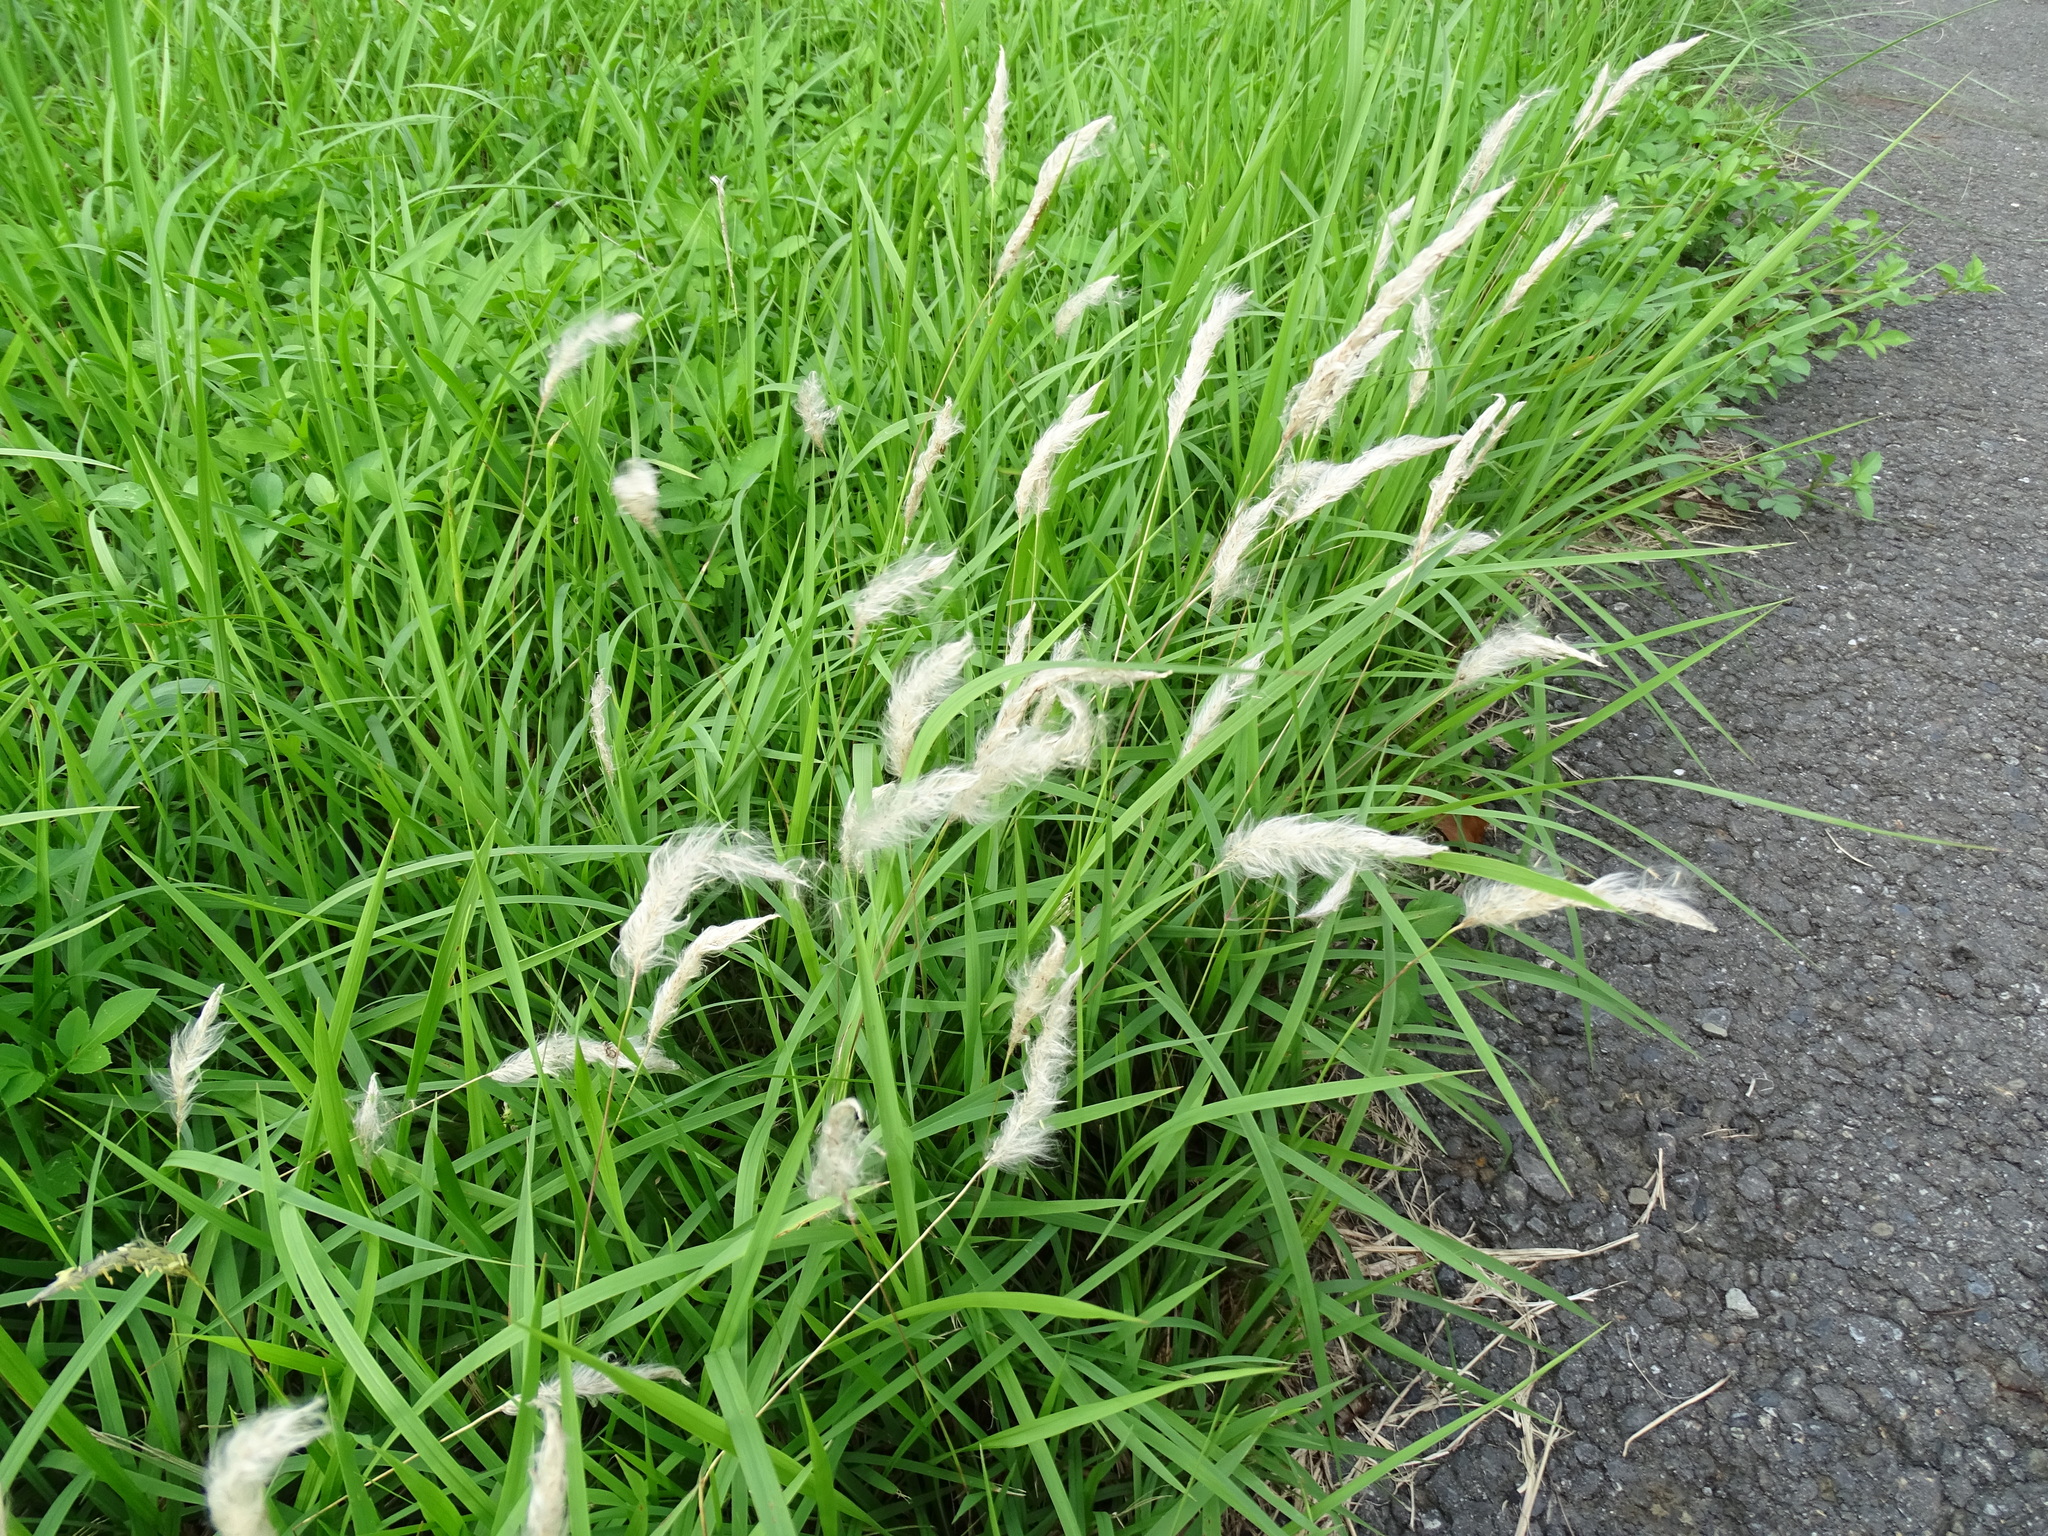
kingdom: Plantae
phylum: Tracheophyta
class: Liliopsida
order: Poales
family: Poaceae
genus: Imperata
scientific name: Imperata cylindrica
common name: Cogongrass
